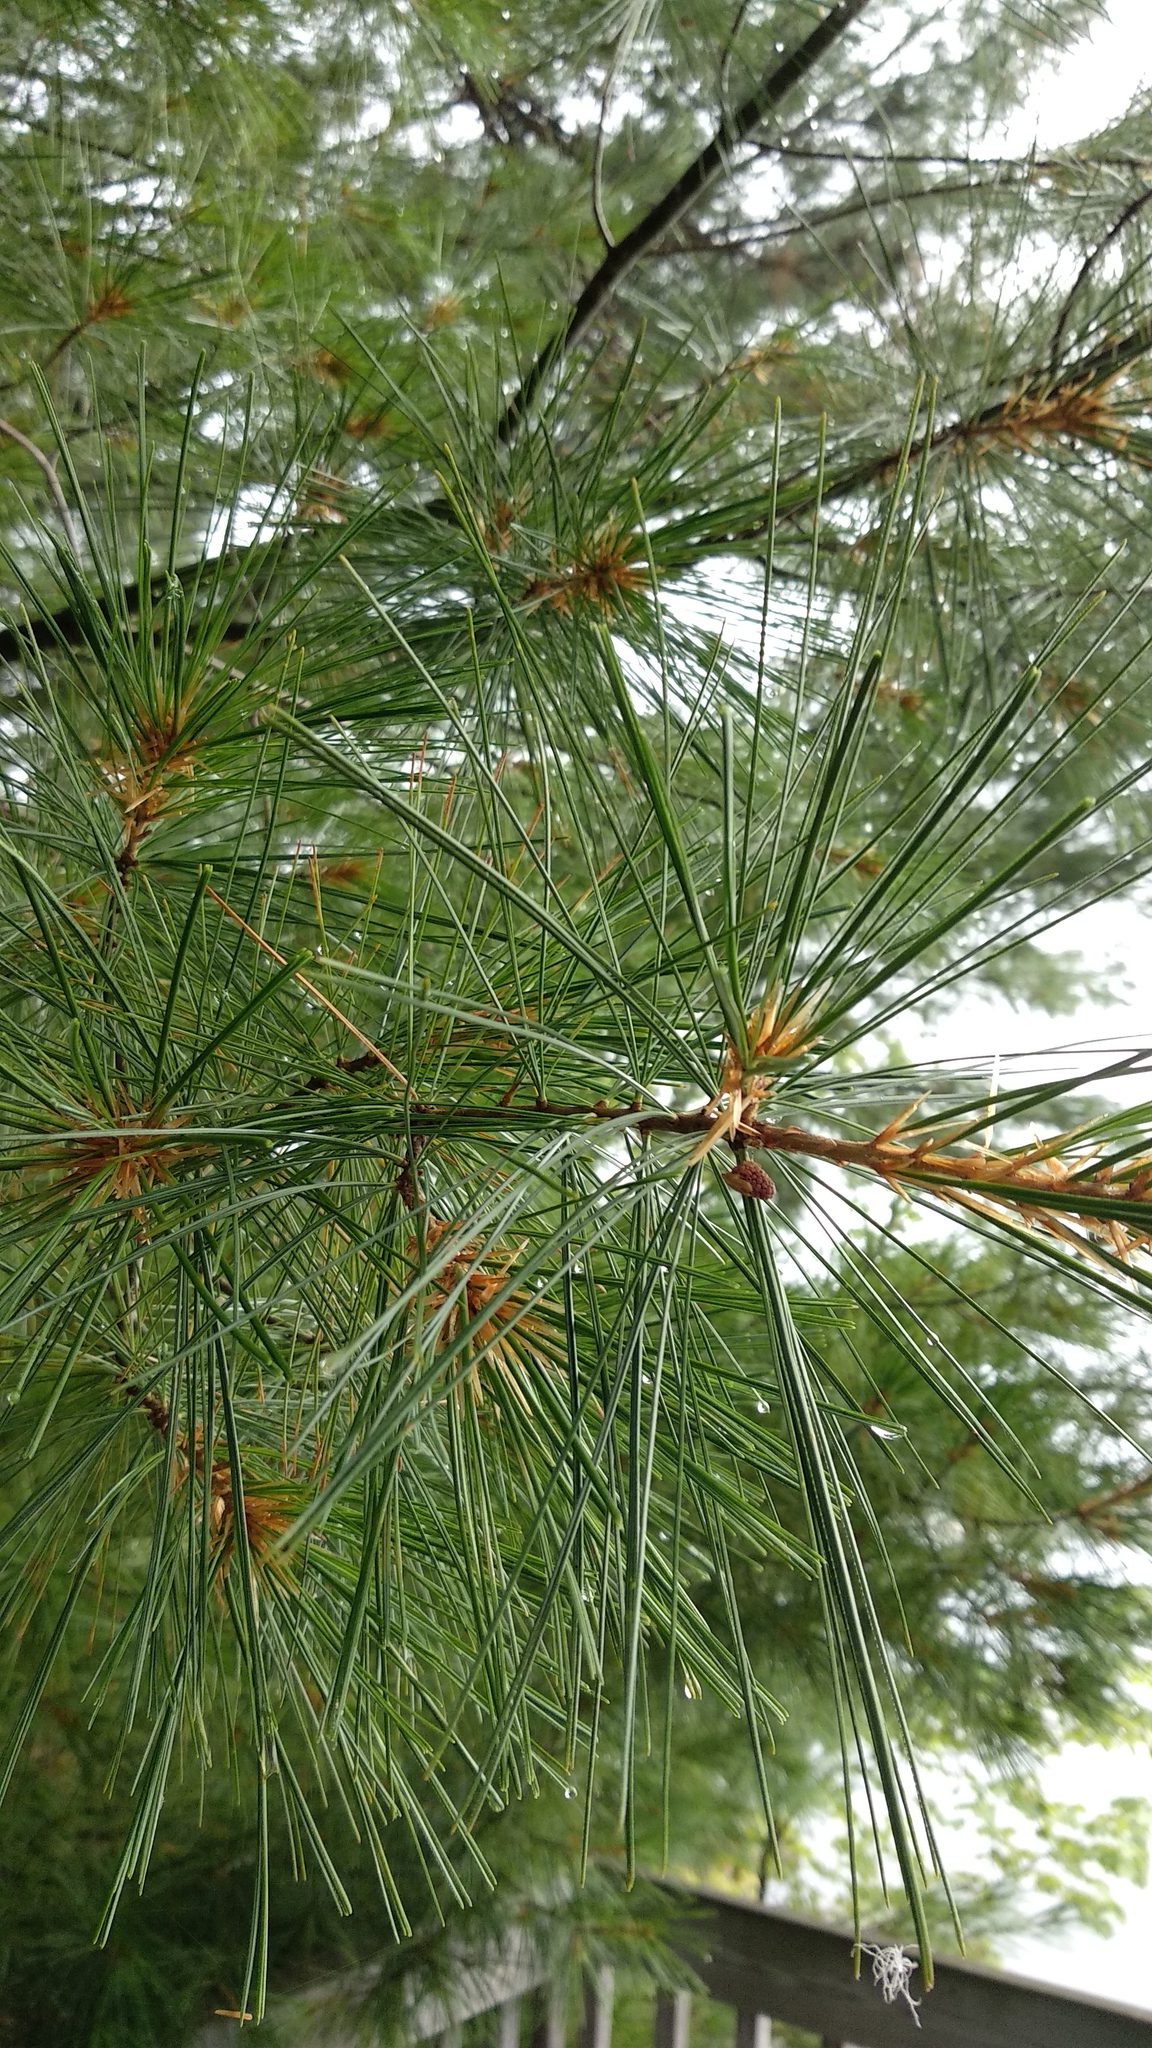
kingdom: Plantae
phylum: Tracheophyta
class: Pinopsida
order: Pinales
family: Pinaceae
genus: Pinus
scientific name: Pinus strobus
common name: Weymouth pine
